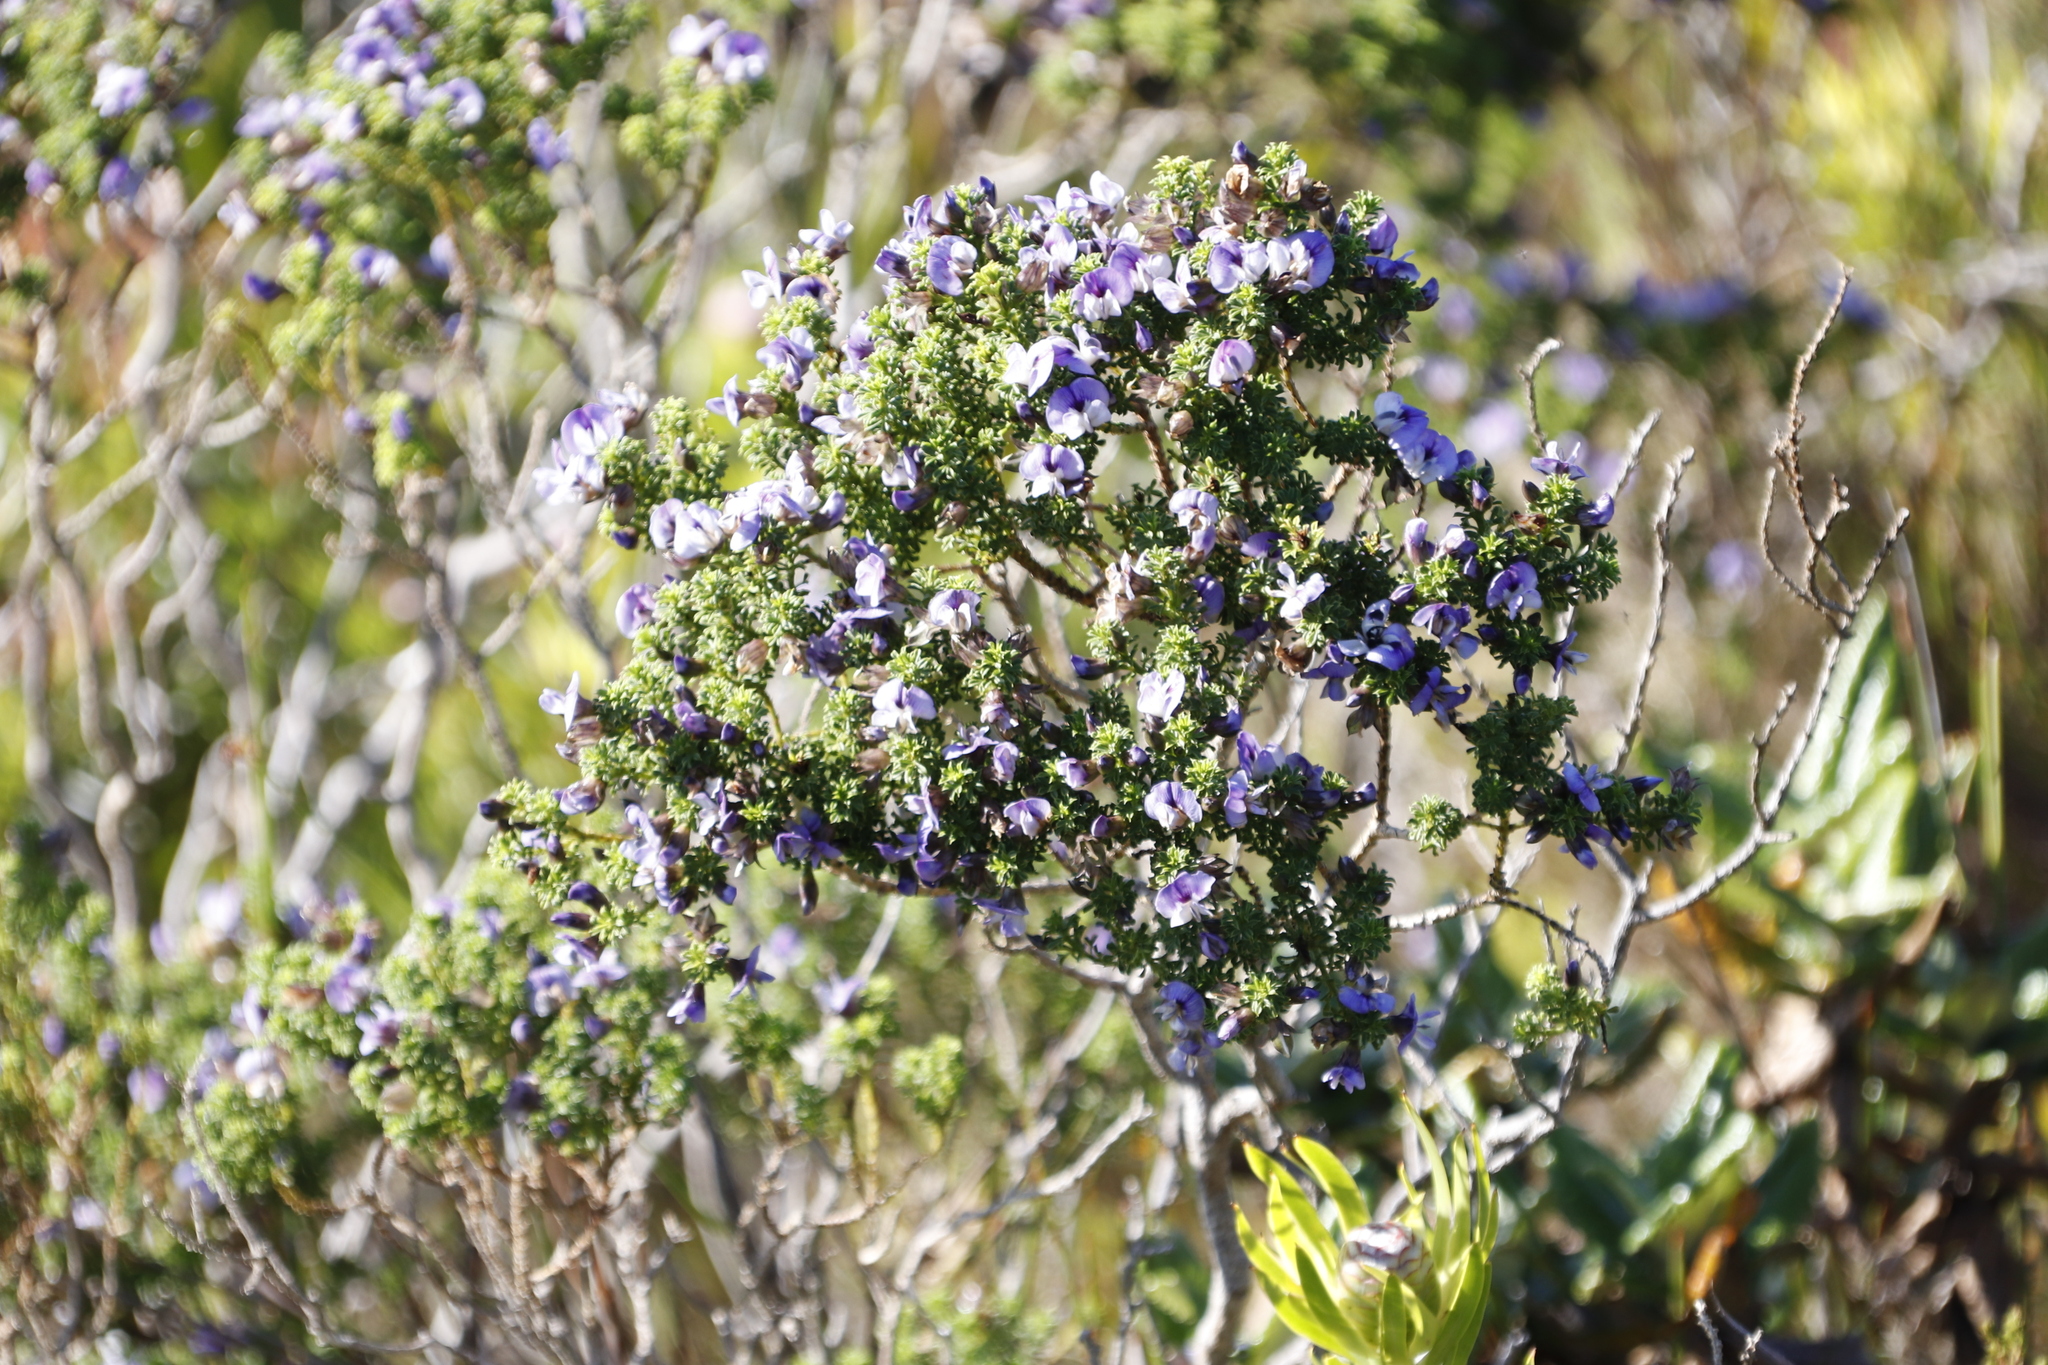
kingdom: Plantae
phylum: Tracheophyta
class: Magnoliopsida
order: Fabales
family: Fabaceae
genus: Psoralea
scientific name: Psoralea aculeata
